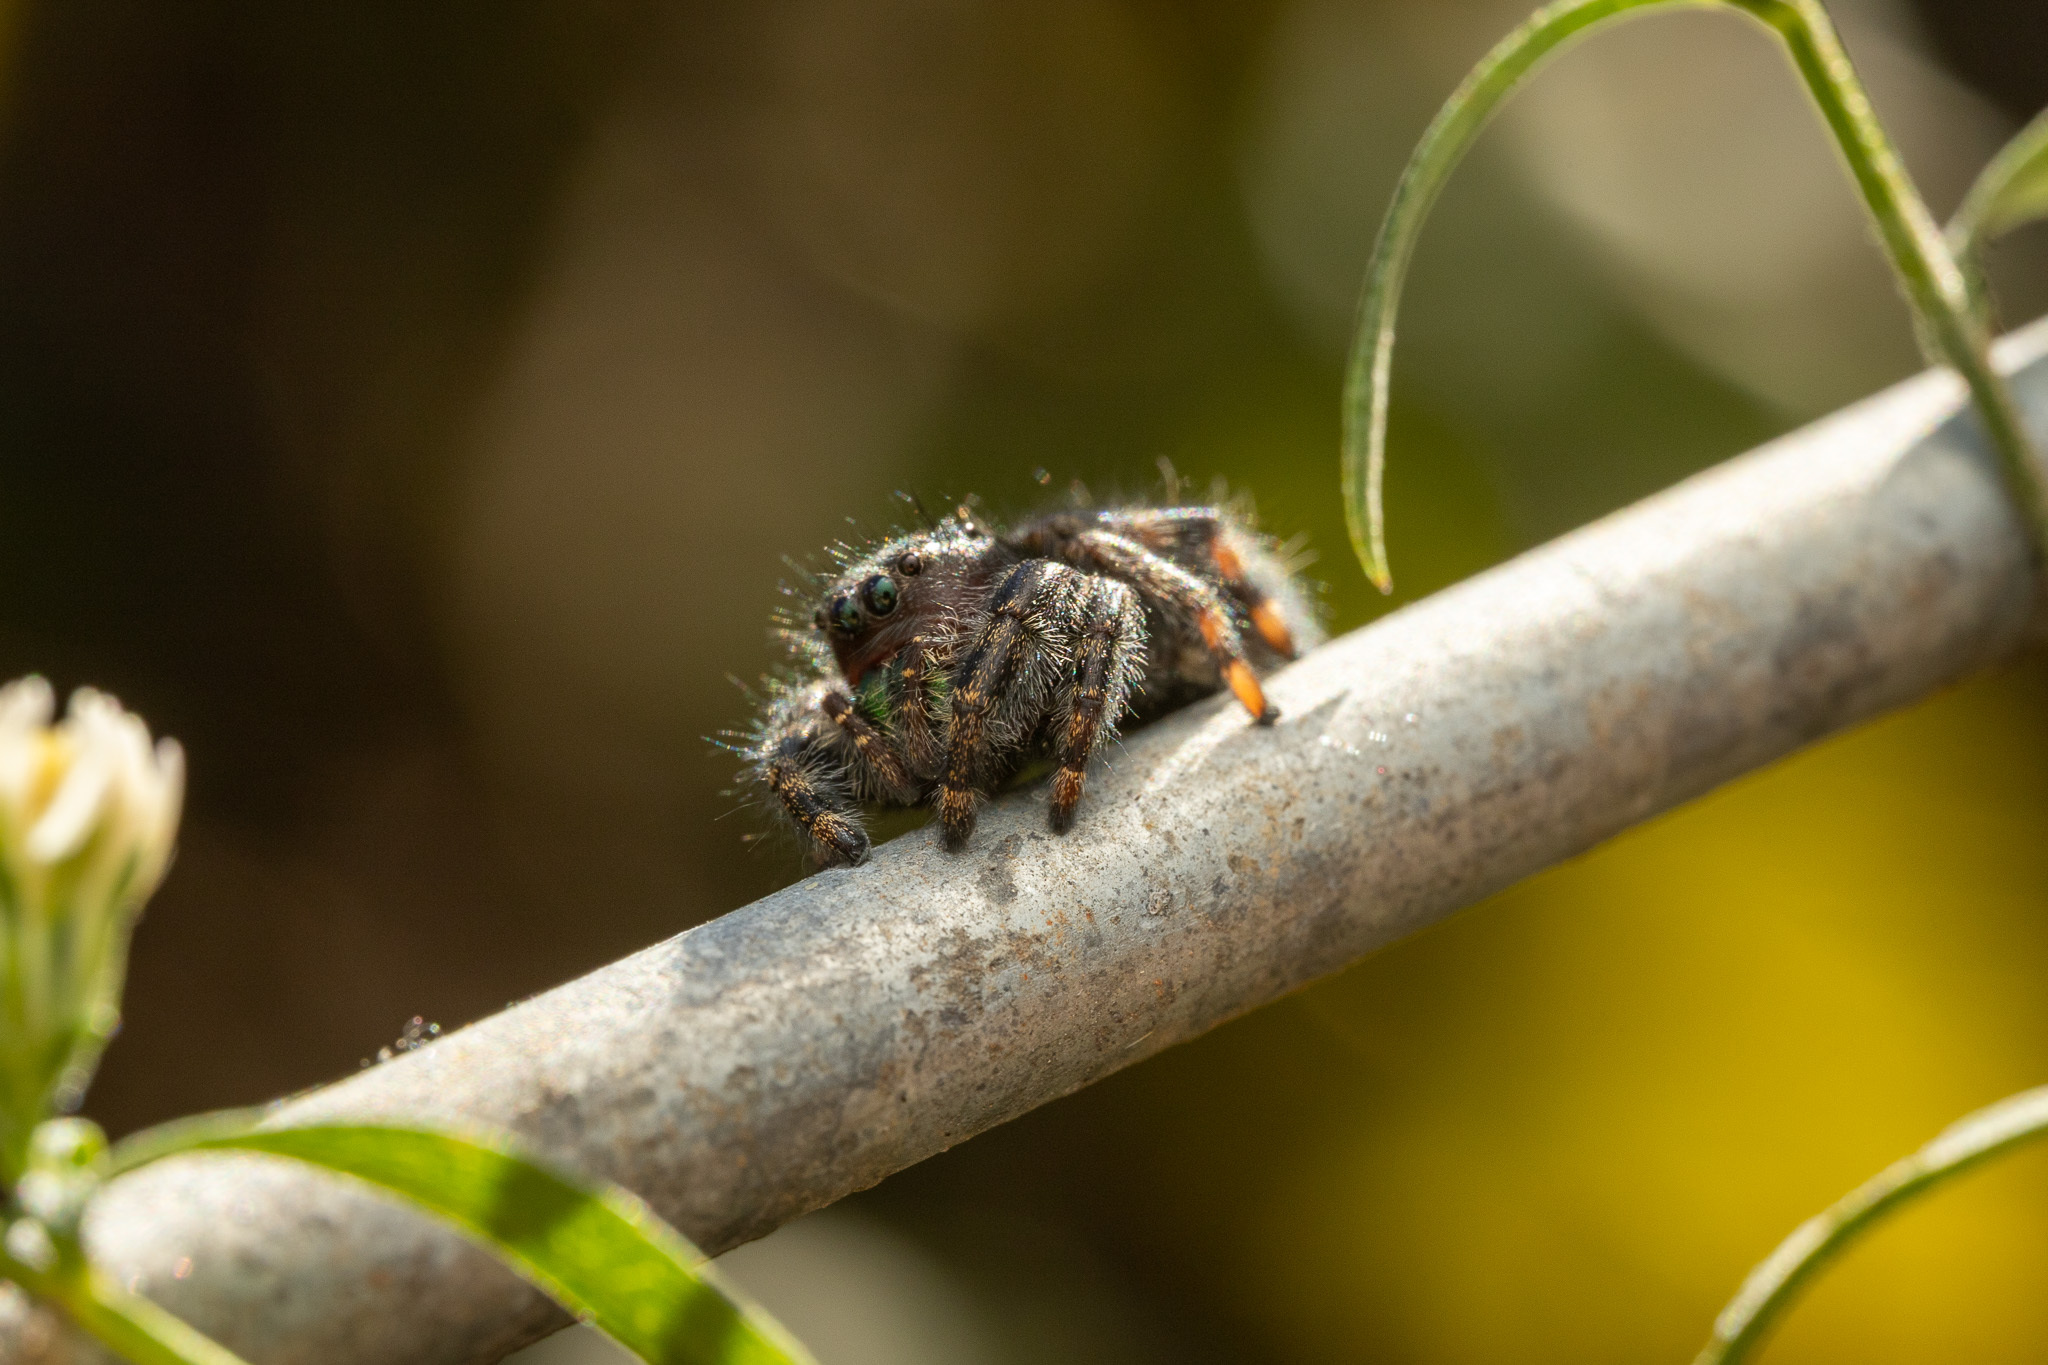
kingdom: Animalia
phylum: Arthropoda
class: Arachnida
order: Araneae
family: Salticidae
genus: Phidippus
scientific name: Phidippus audax
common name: Bold jumper
